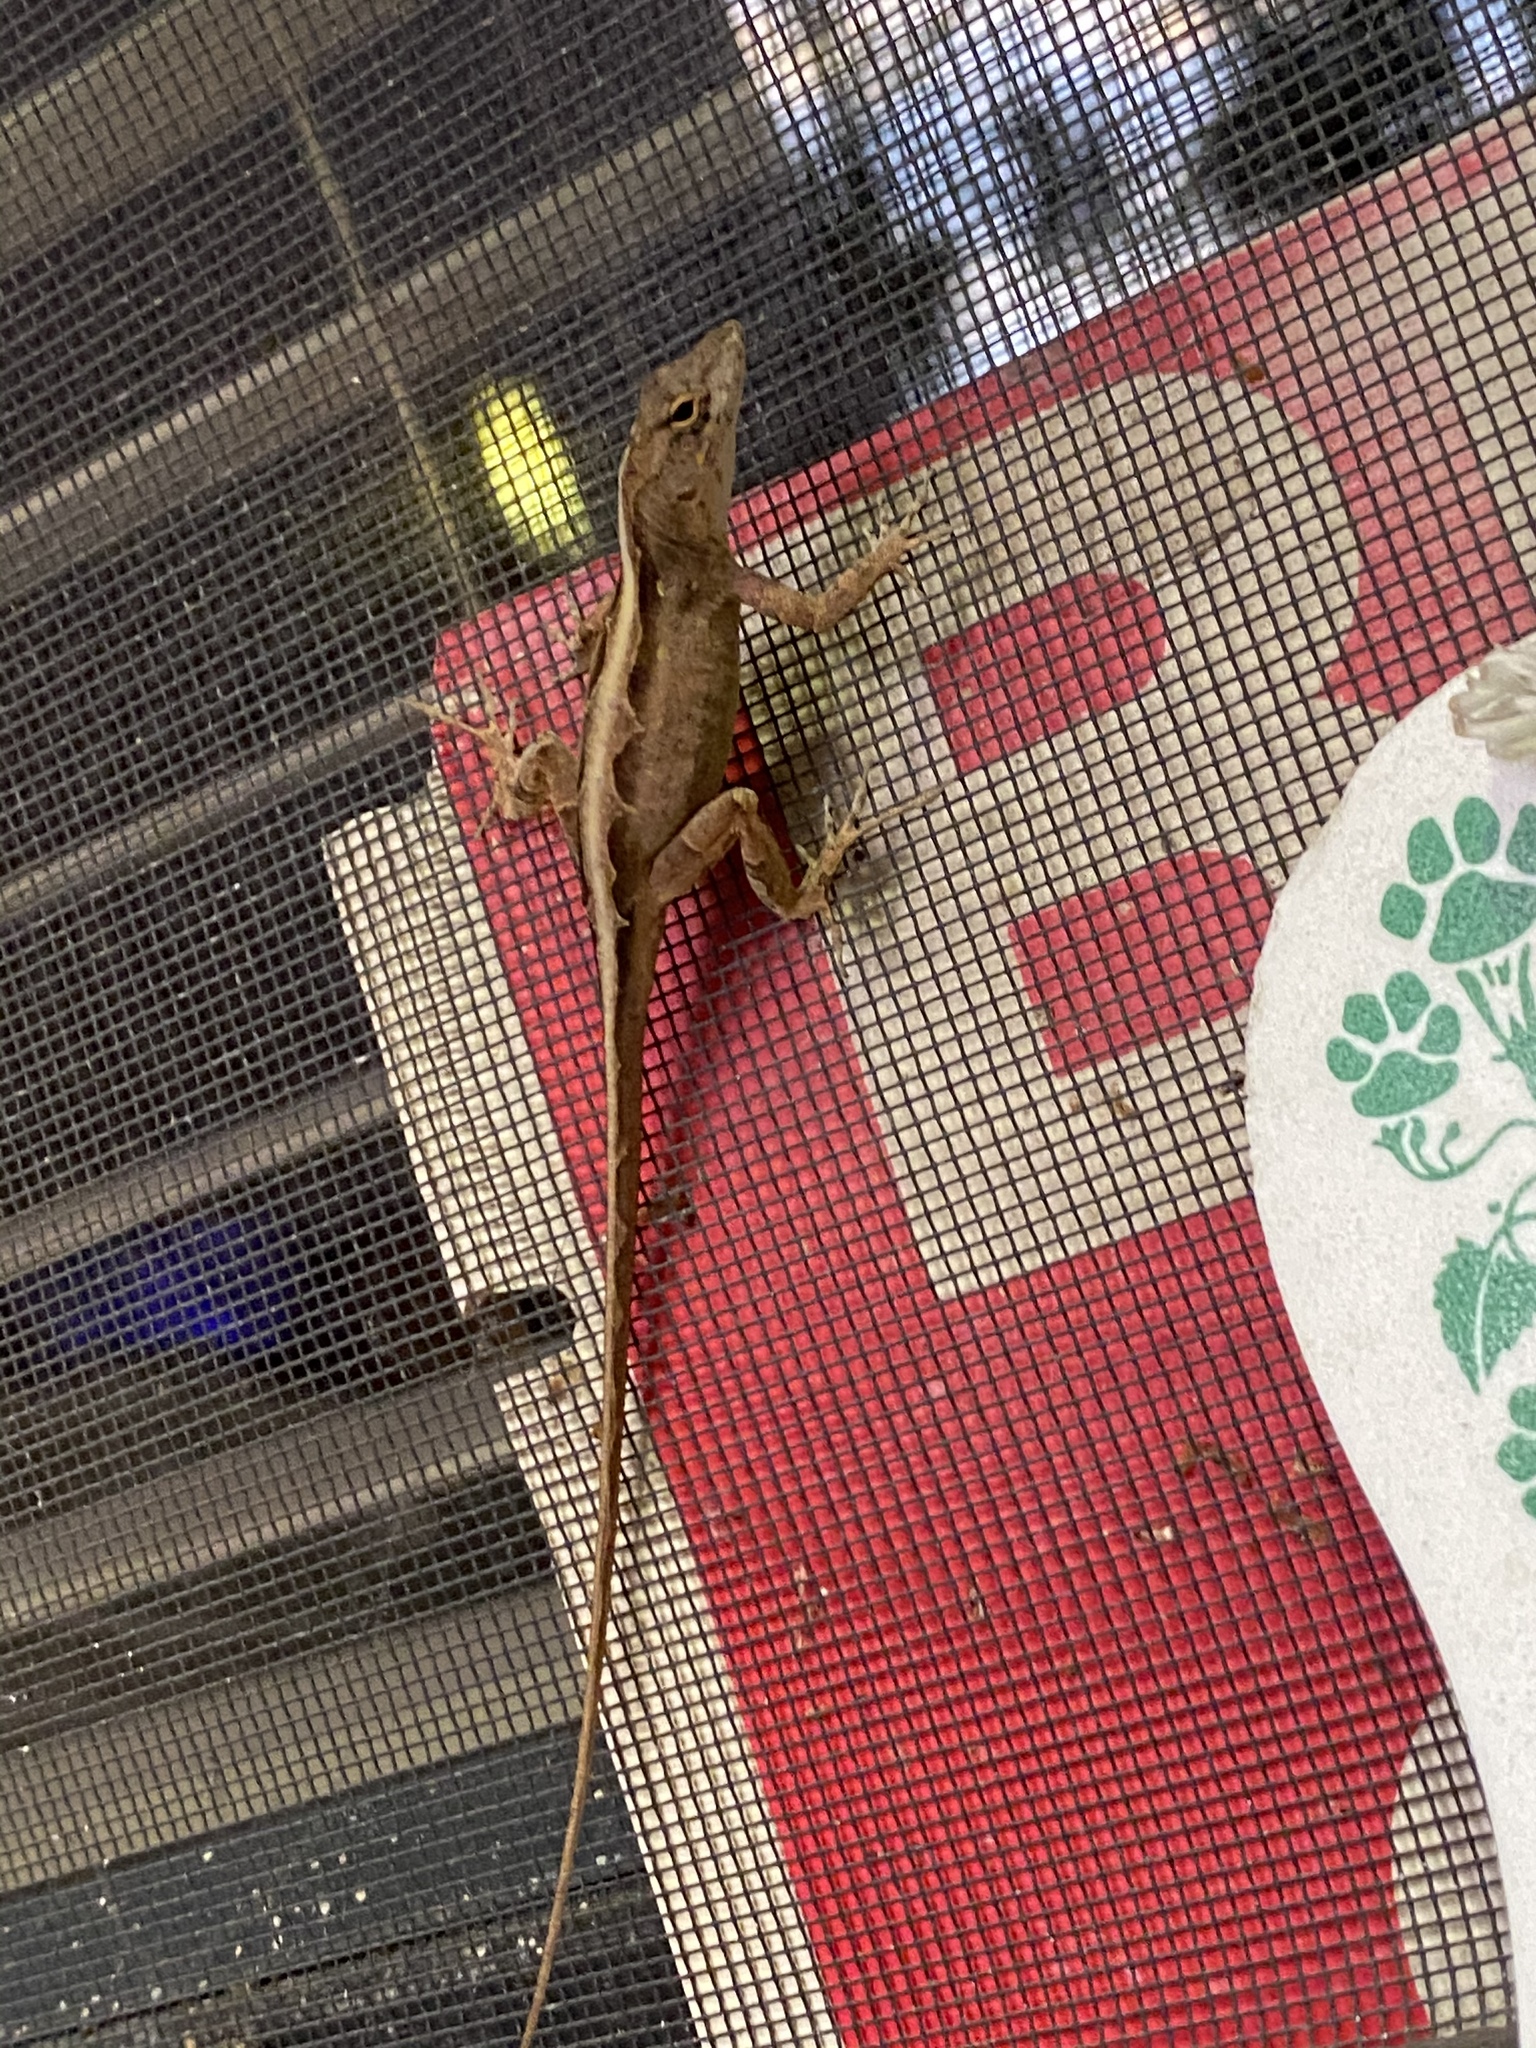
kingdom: Animalia
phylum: Chordata
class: Squamata
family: Dactyloidae
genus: Anolis
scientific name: Anolis sagrei
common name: Brown anole
